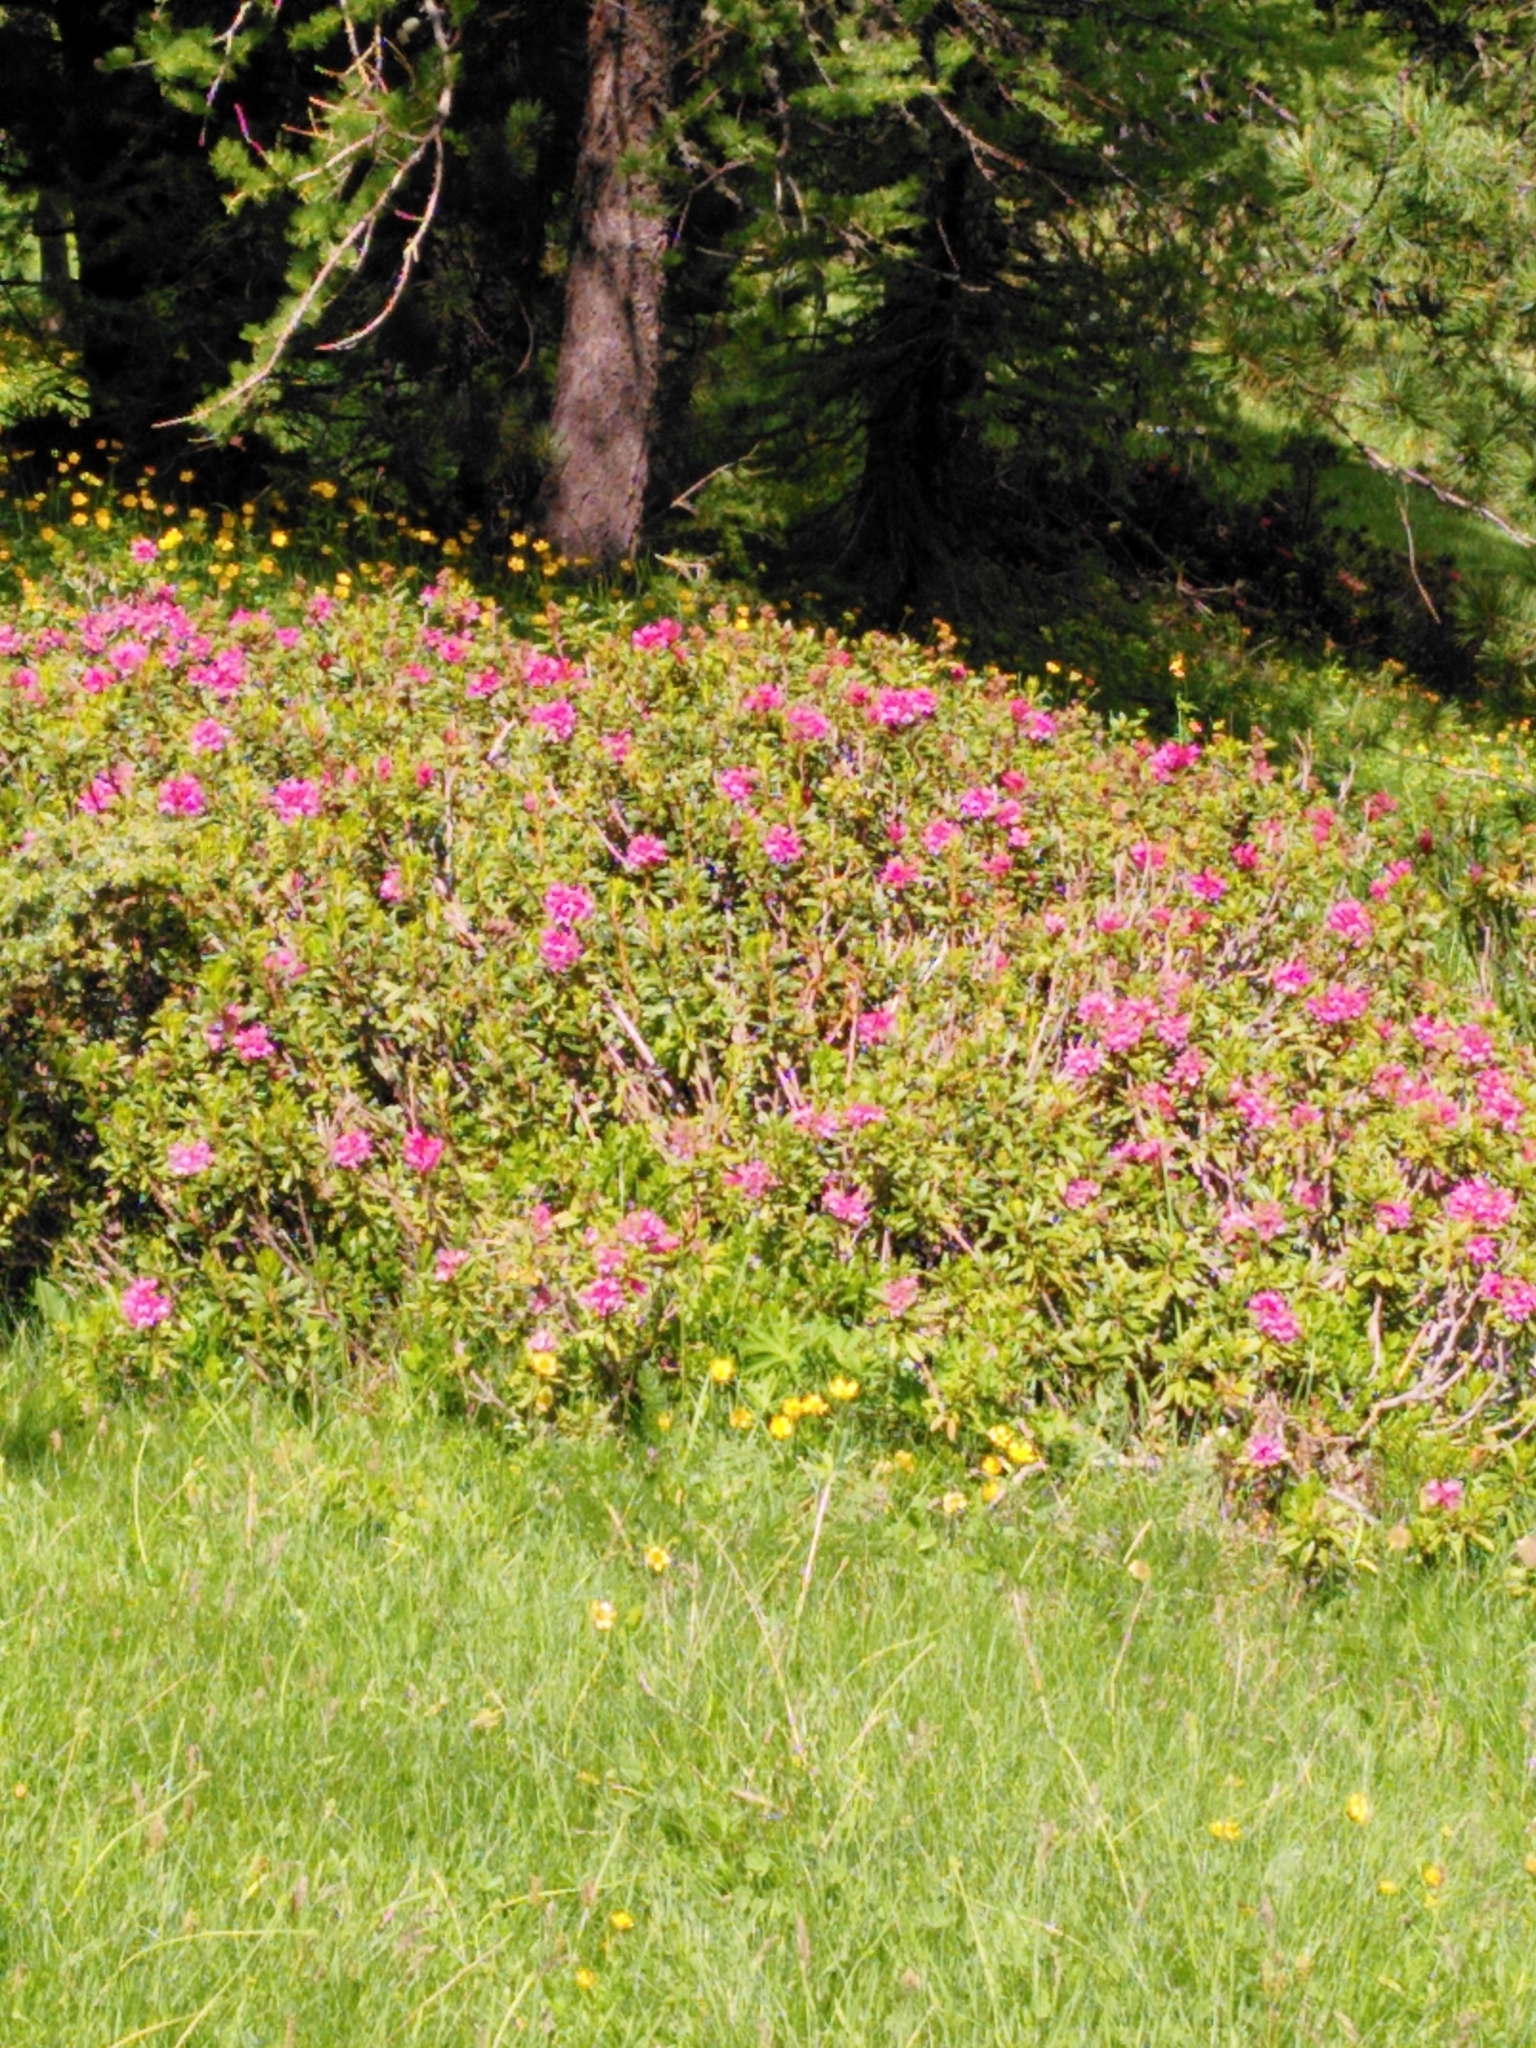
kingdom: Plantae
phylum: Tracheophyta
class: Magnoliopsida
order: Ericales
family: Ericaceae
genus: Rhododendron
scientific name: Rhododendron ferrugineum
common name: Alpenrose
